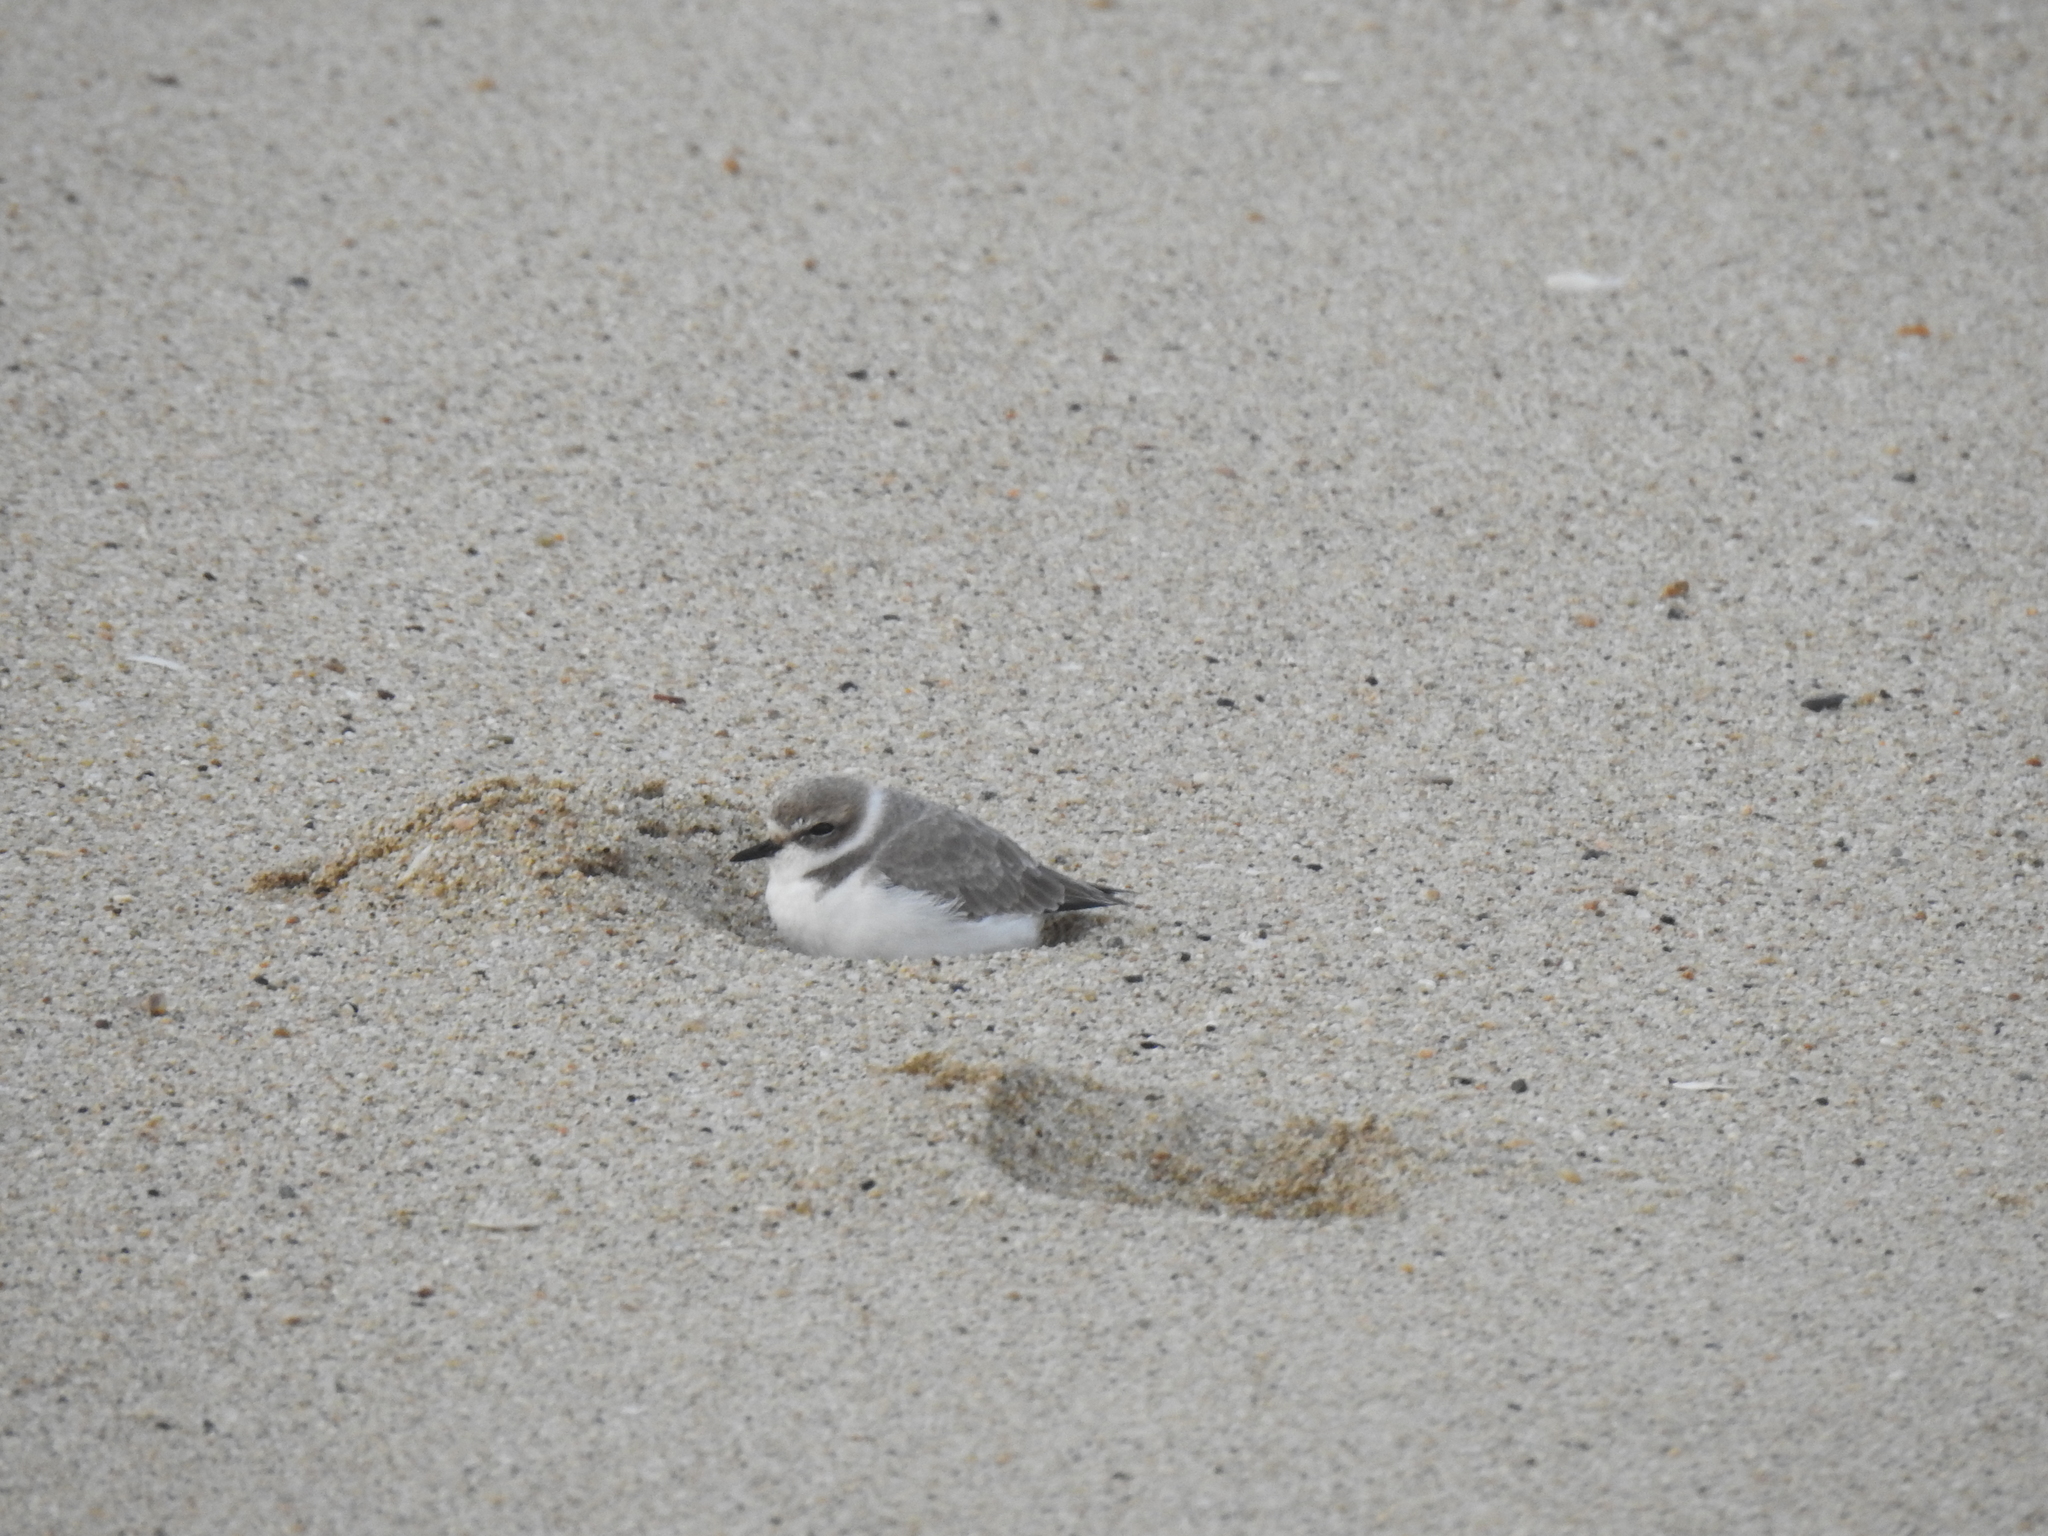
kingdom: Animalia
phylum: Chordata
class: Aves
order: Charadriiformes
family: Charadriidae
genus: Anarhynchus
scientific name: Anarhynchus
